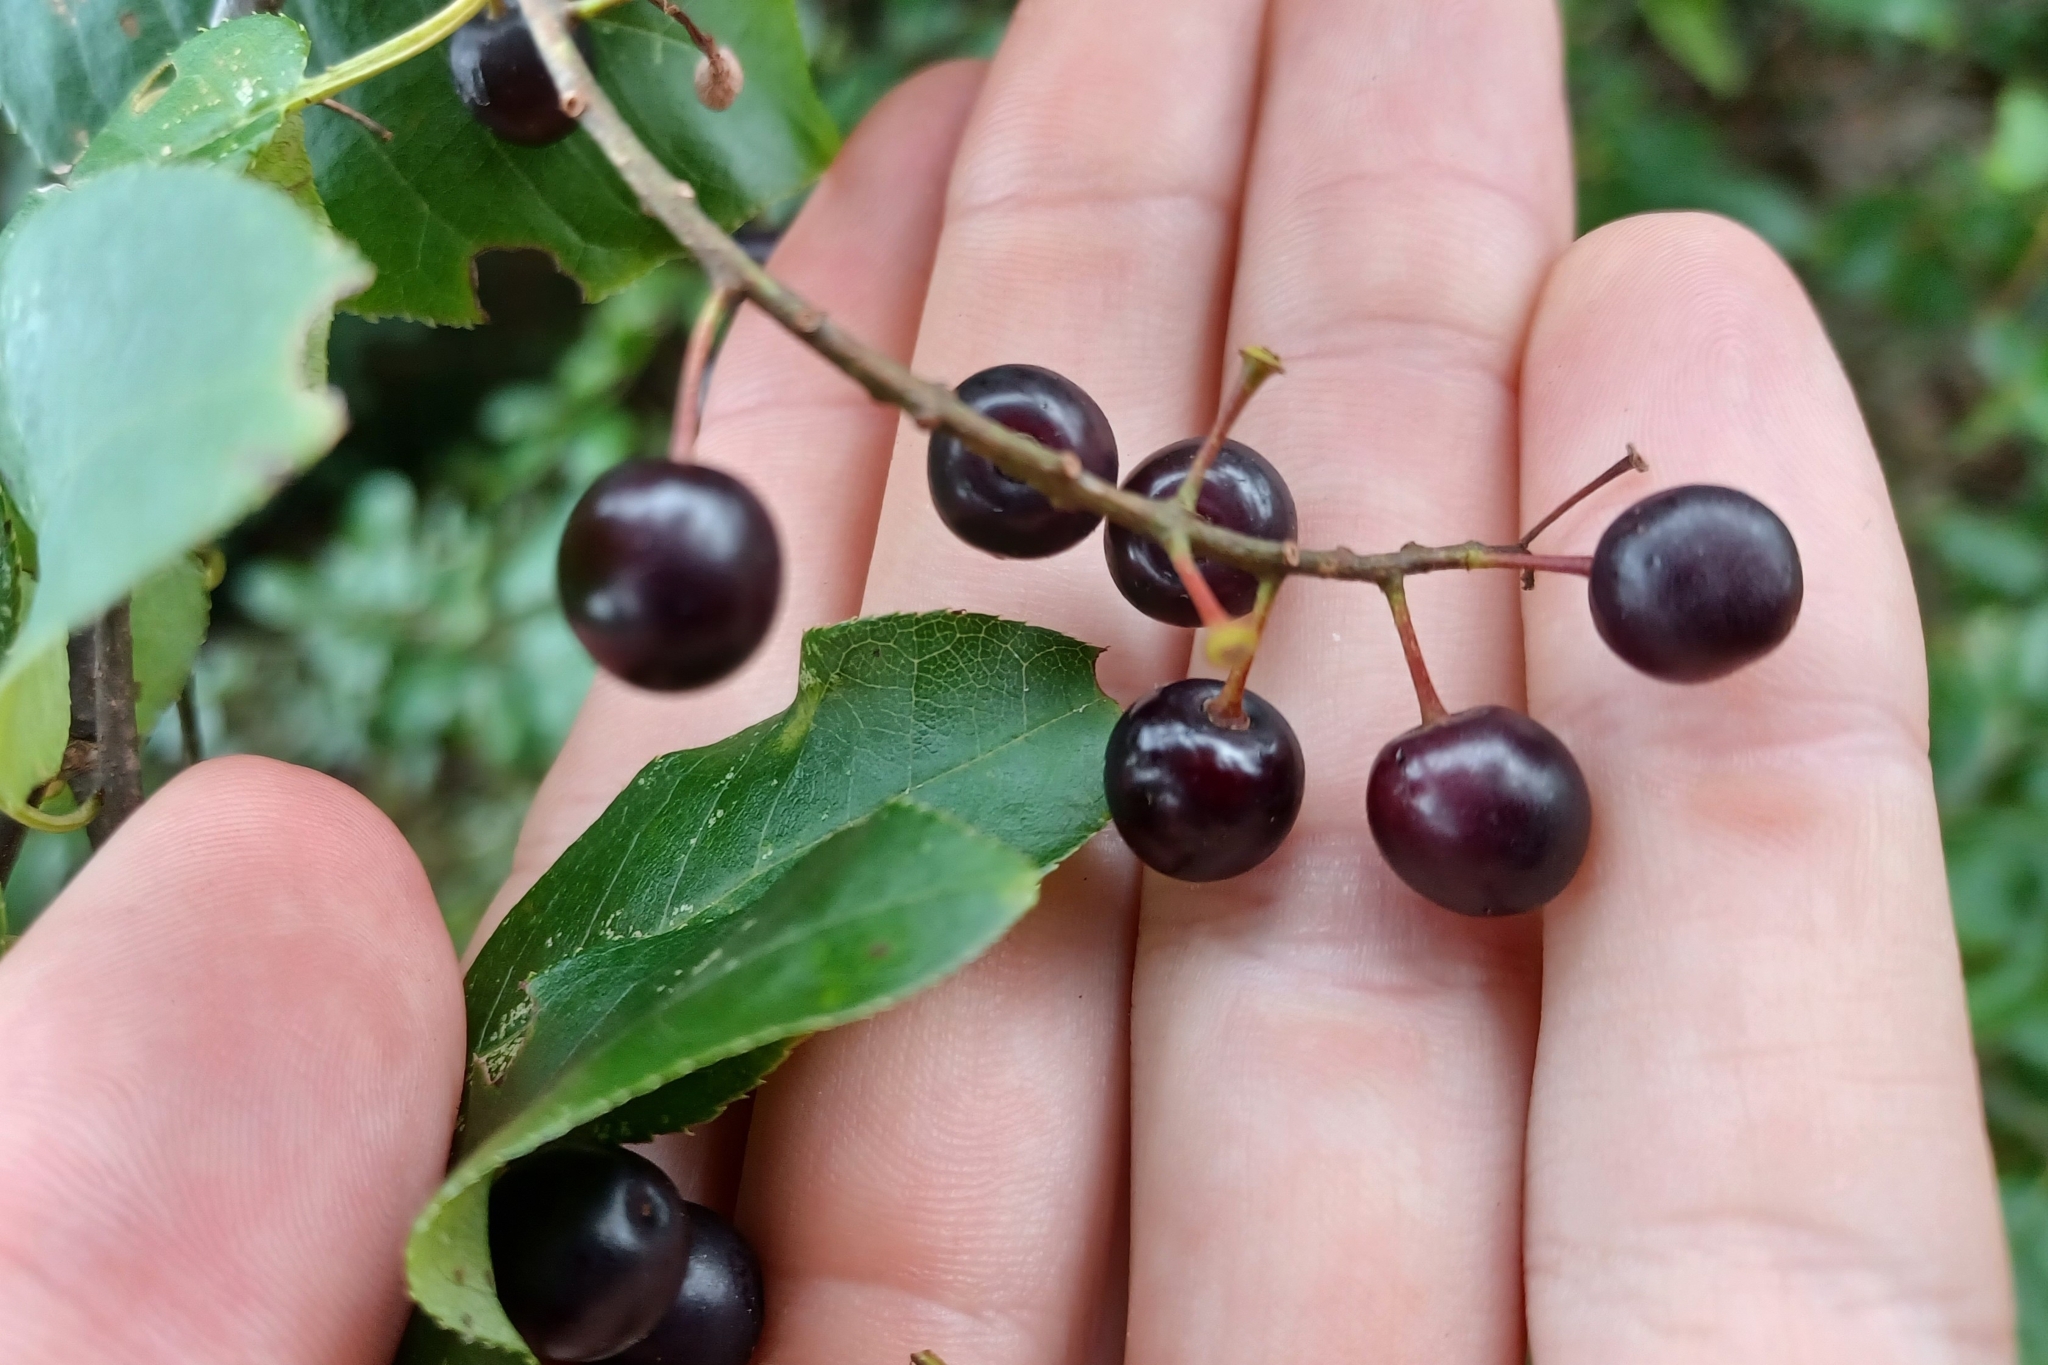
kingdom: Plantae
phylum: Tracheophyta
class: Magnoliopsida
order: Rosales
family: Rosaceae
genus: Prunus
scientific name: Prunus virginiana
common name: Chokecherry
